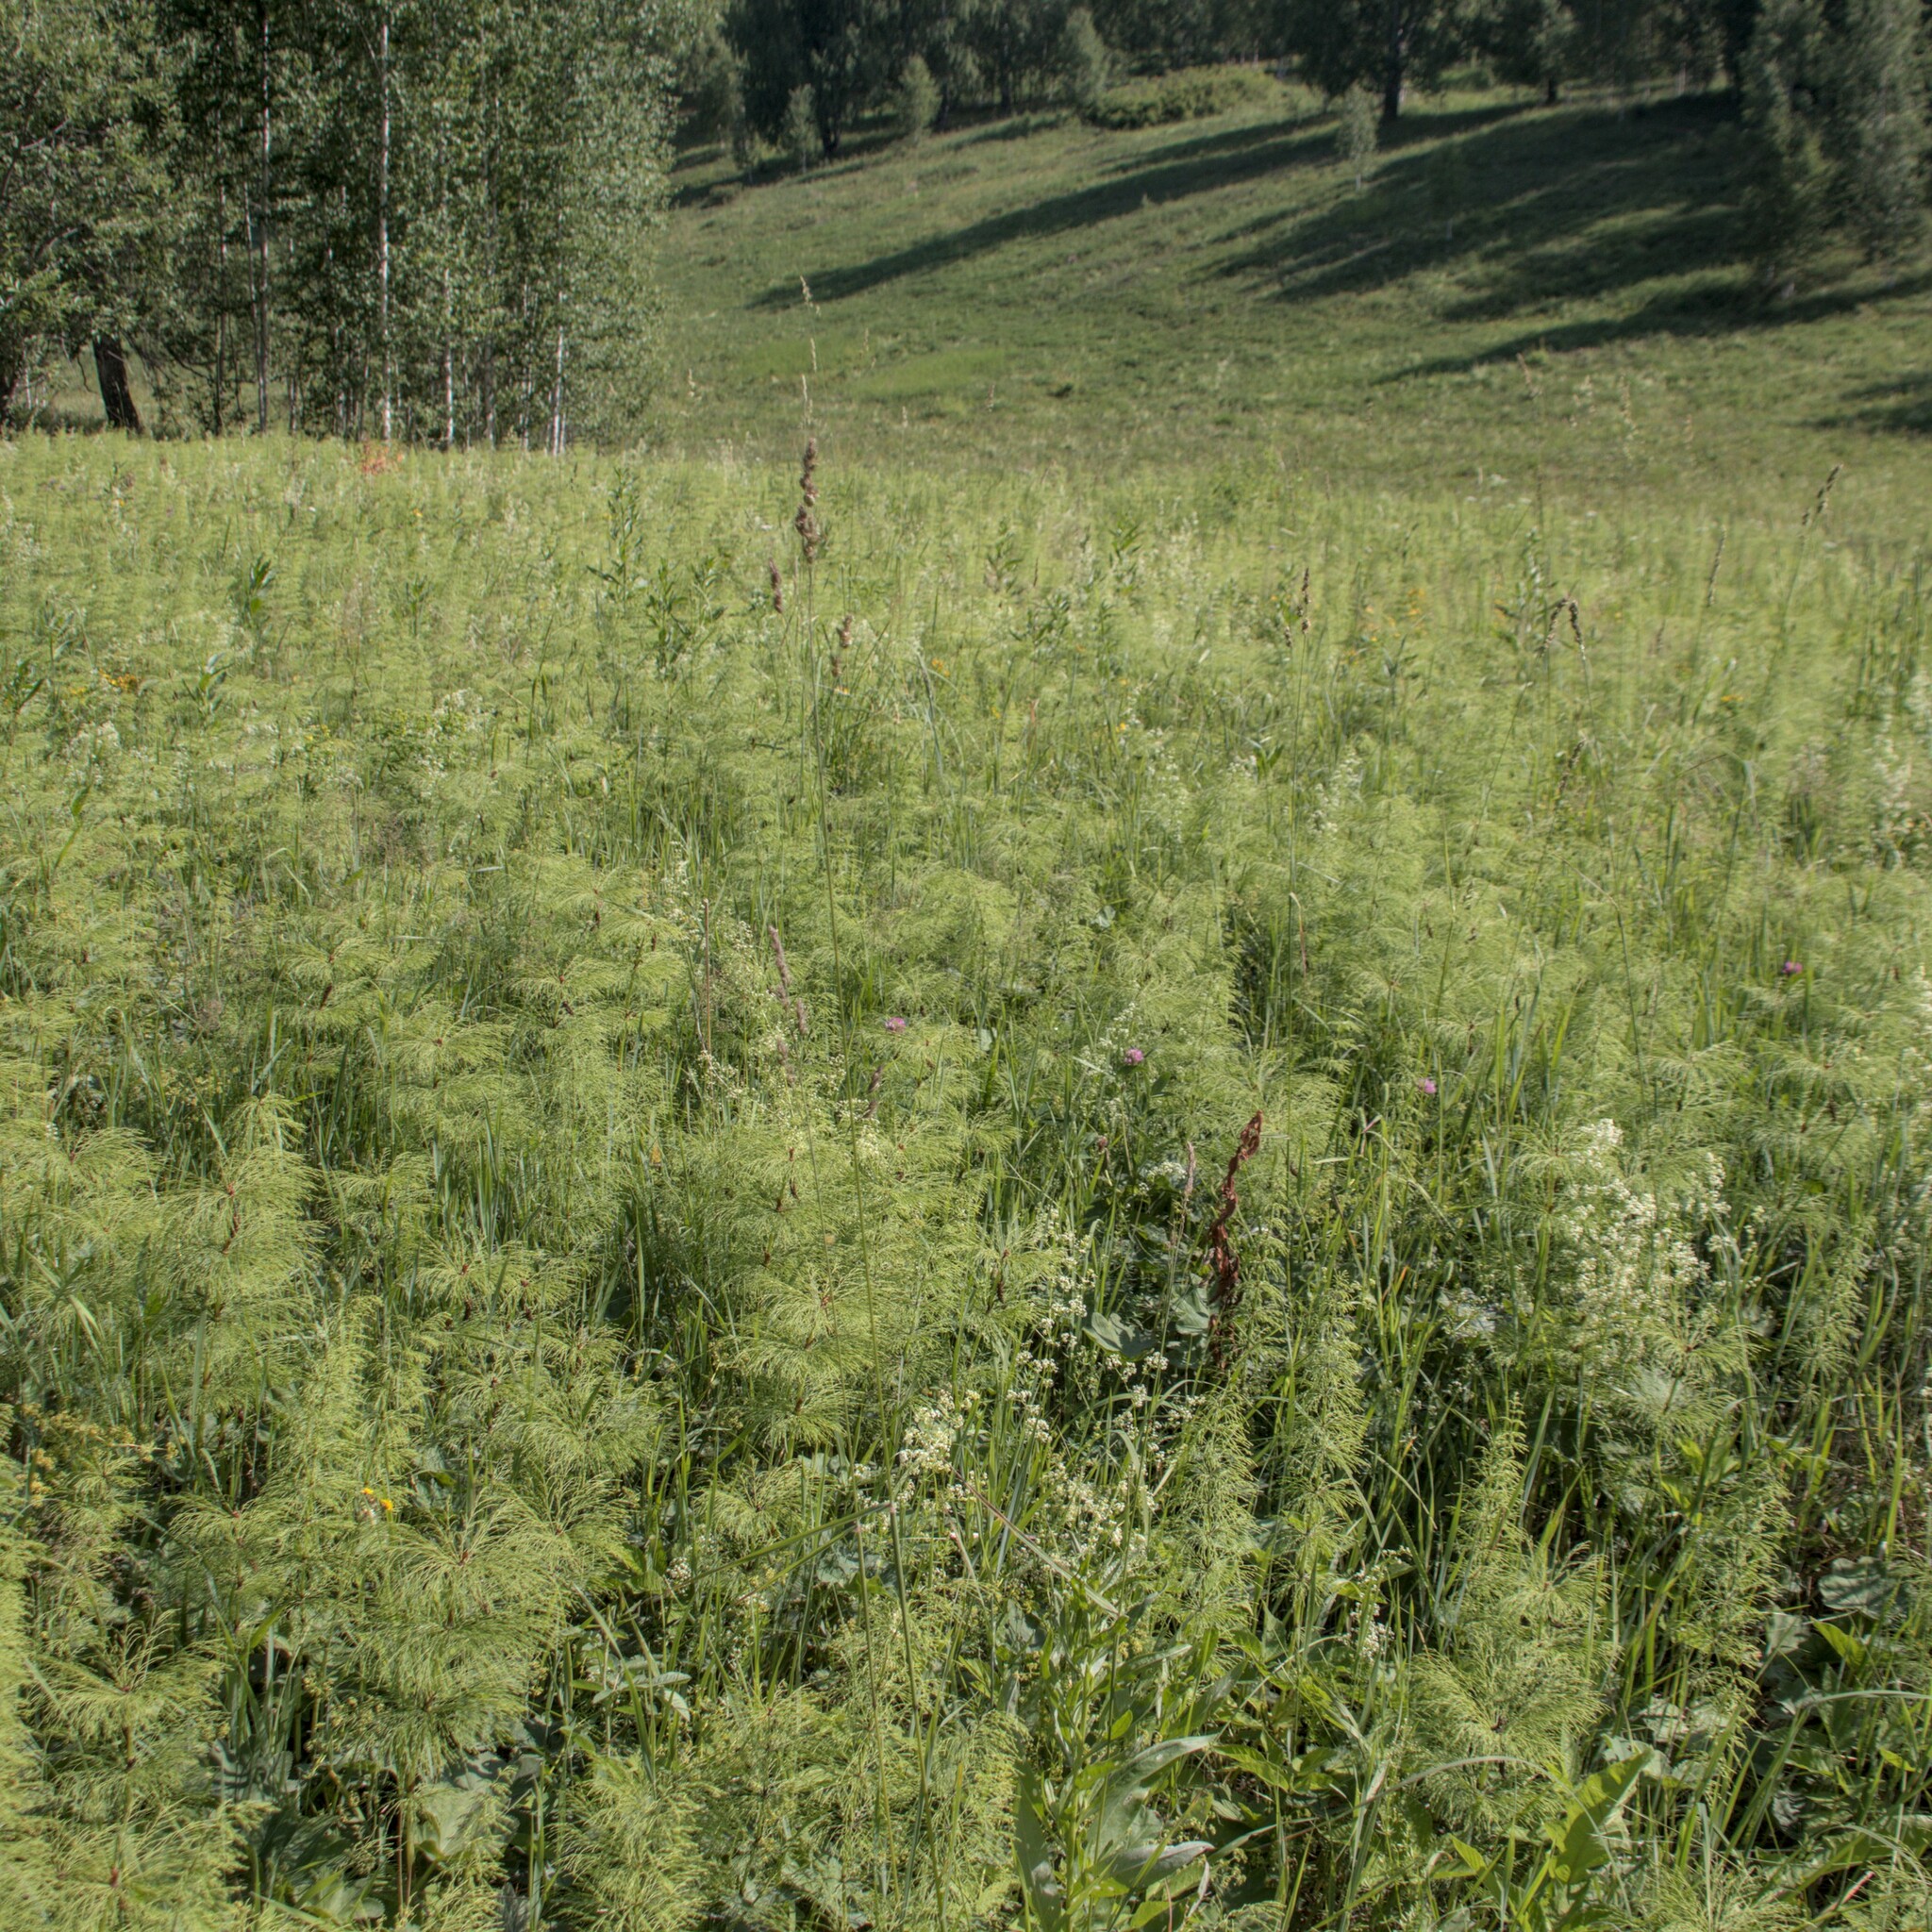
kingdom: Plantae
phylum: Tracheophyta
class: Polypodiopsida
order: Equisetales
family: Equisetaceae
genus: Equisetum
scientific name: Equisetum sylvaticum
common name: Wood horsetail
